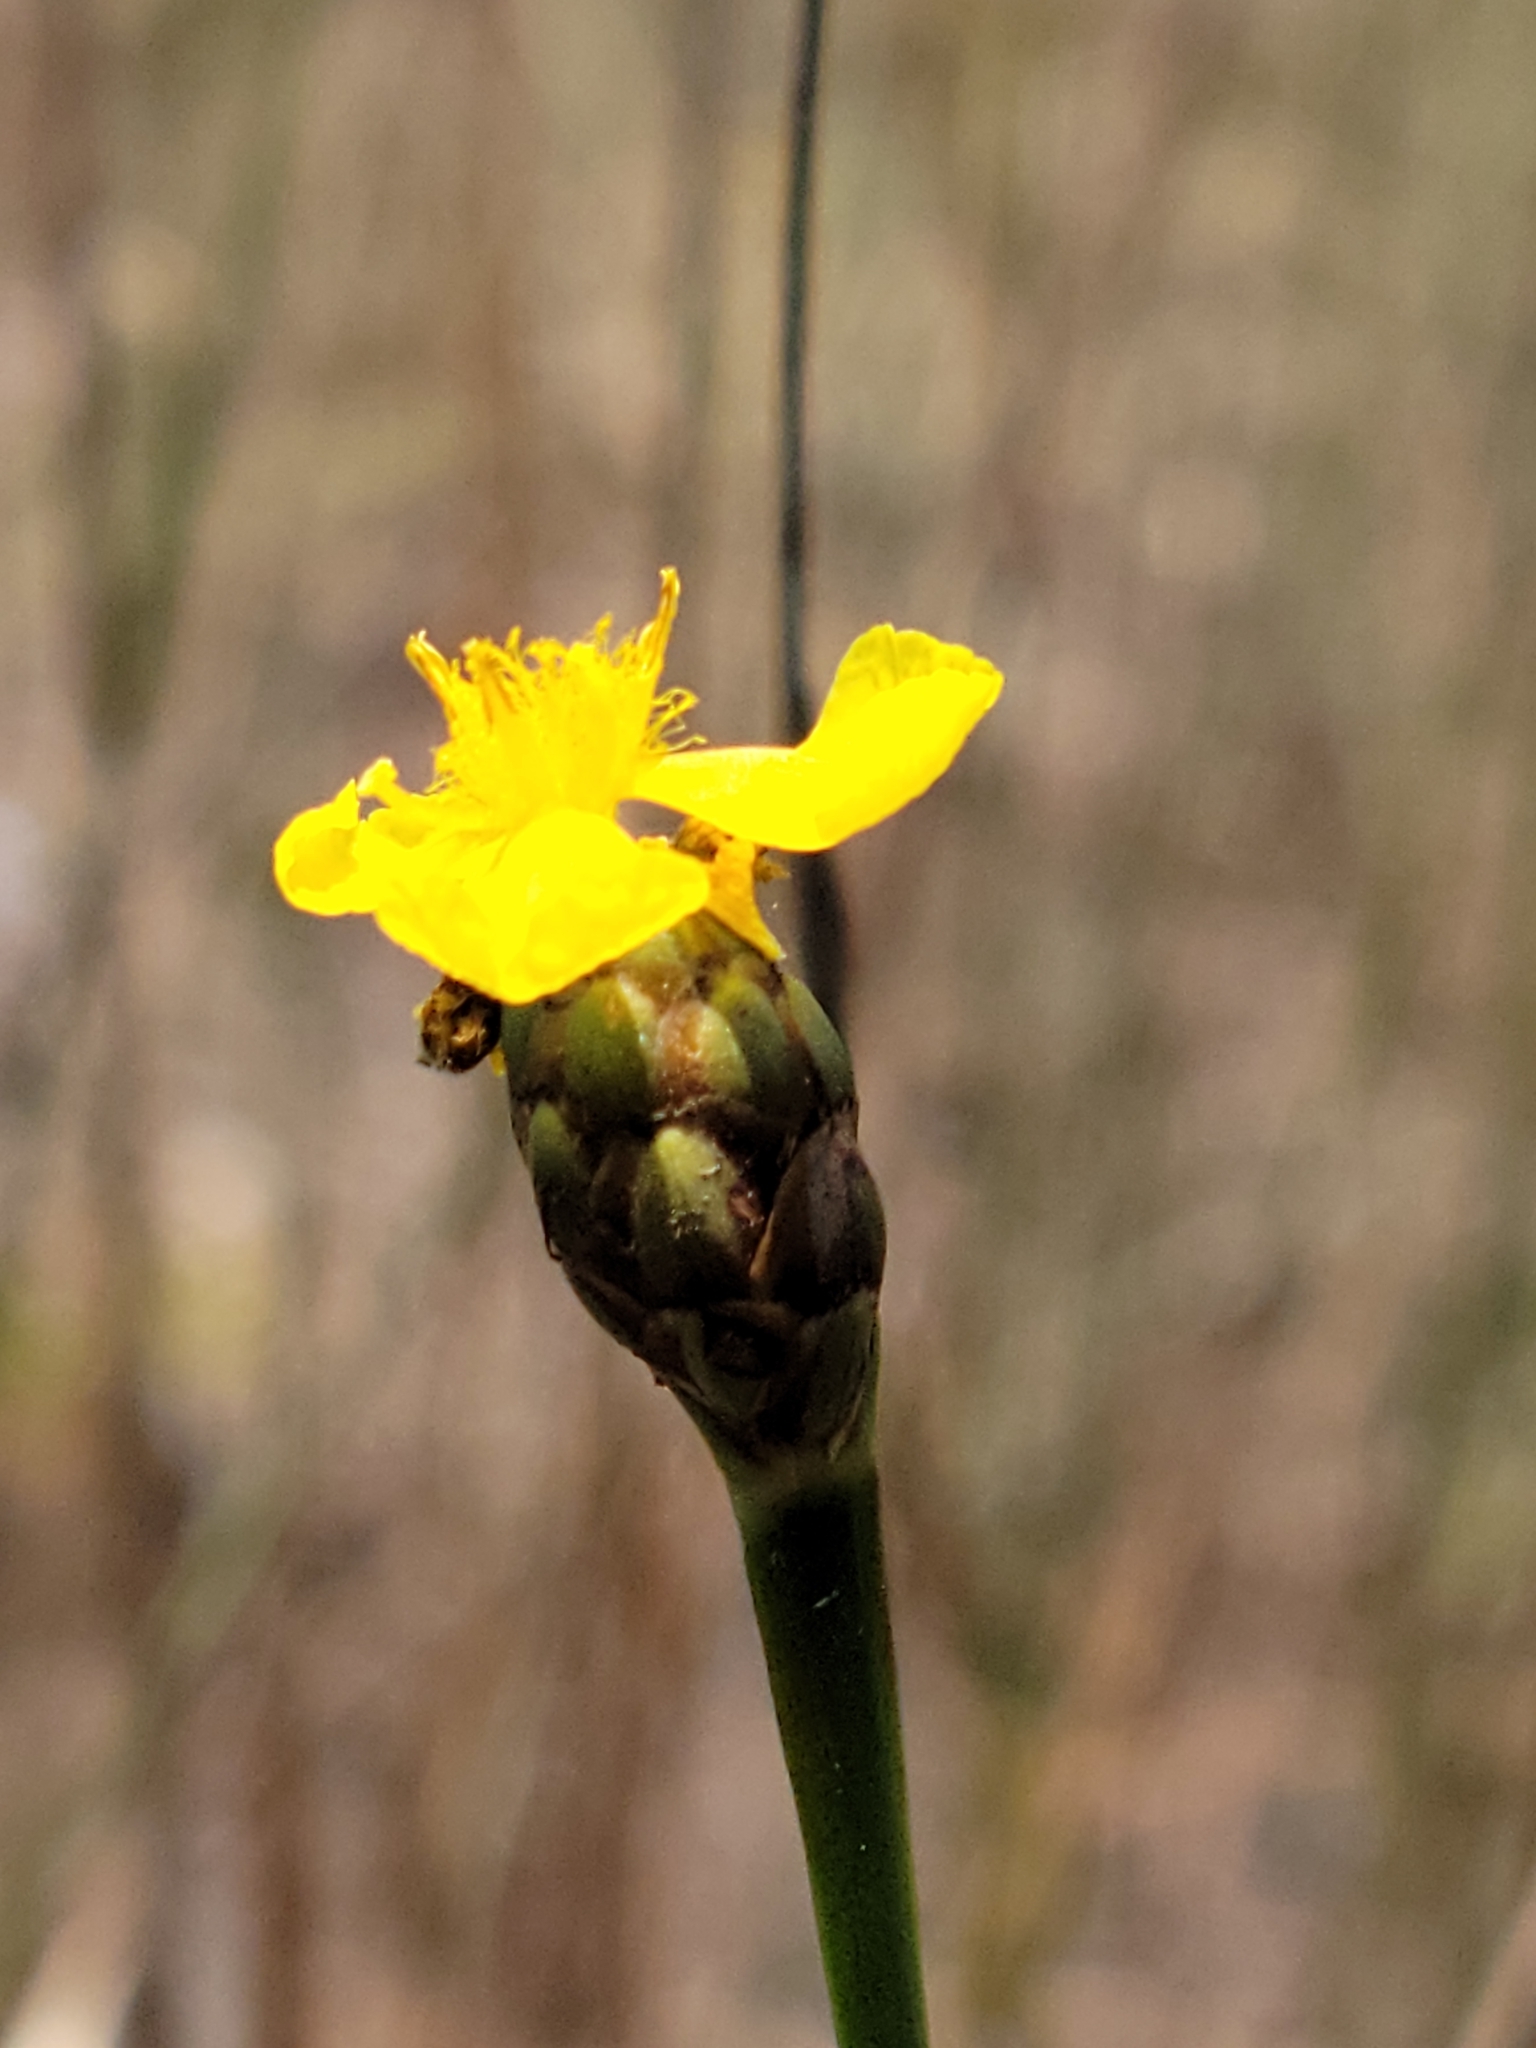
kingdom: Plantae
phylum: Tracheophyta
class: Liliopsida
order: Poales
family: Xyridaceae
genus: Xyris
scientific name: Xyris smalliana
